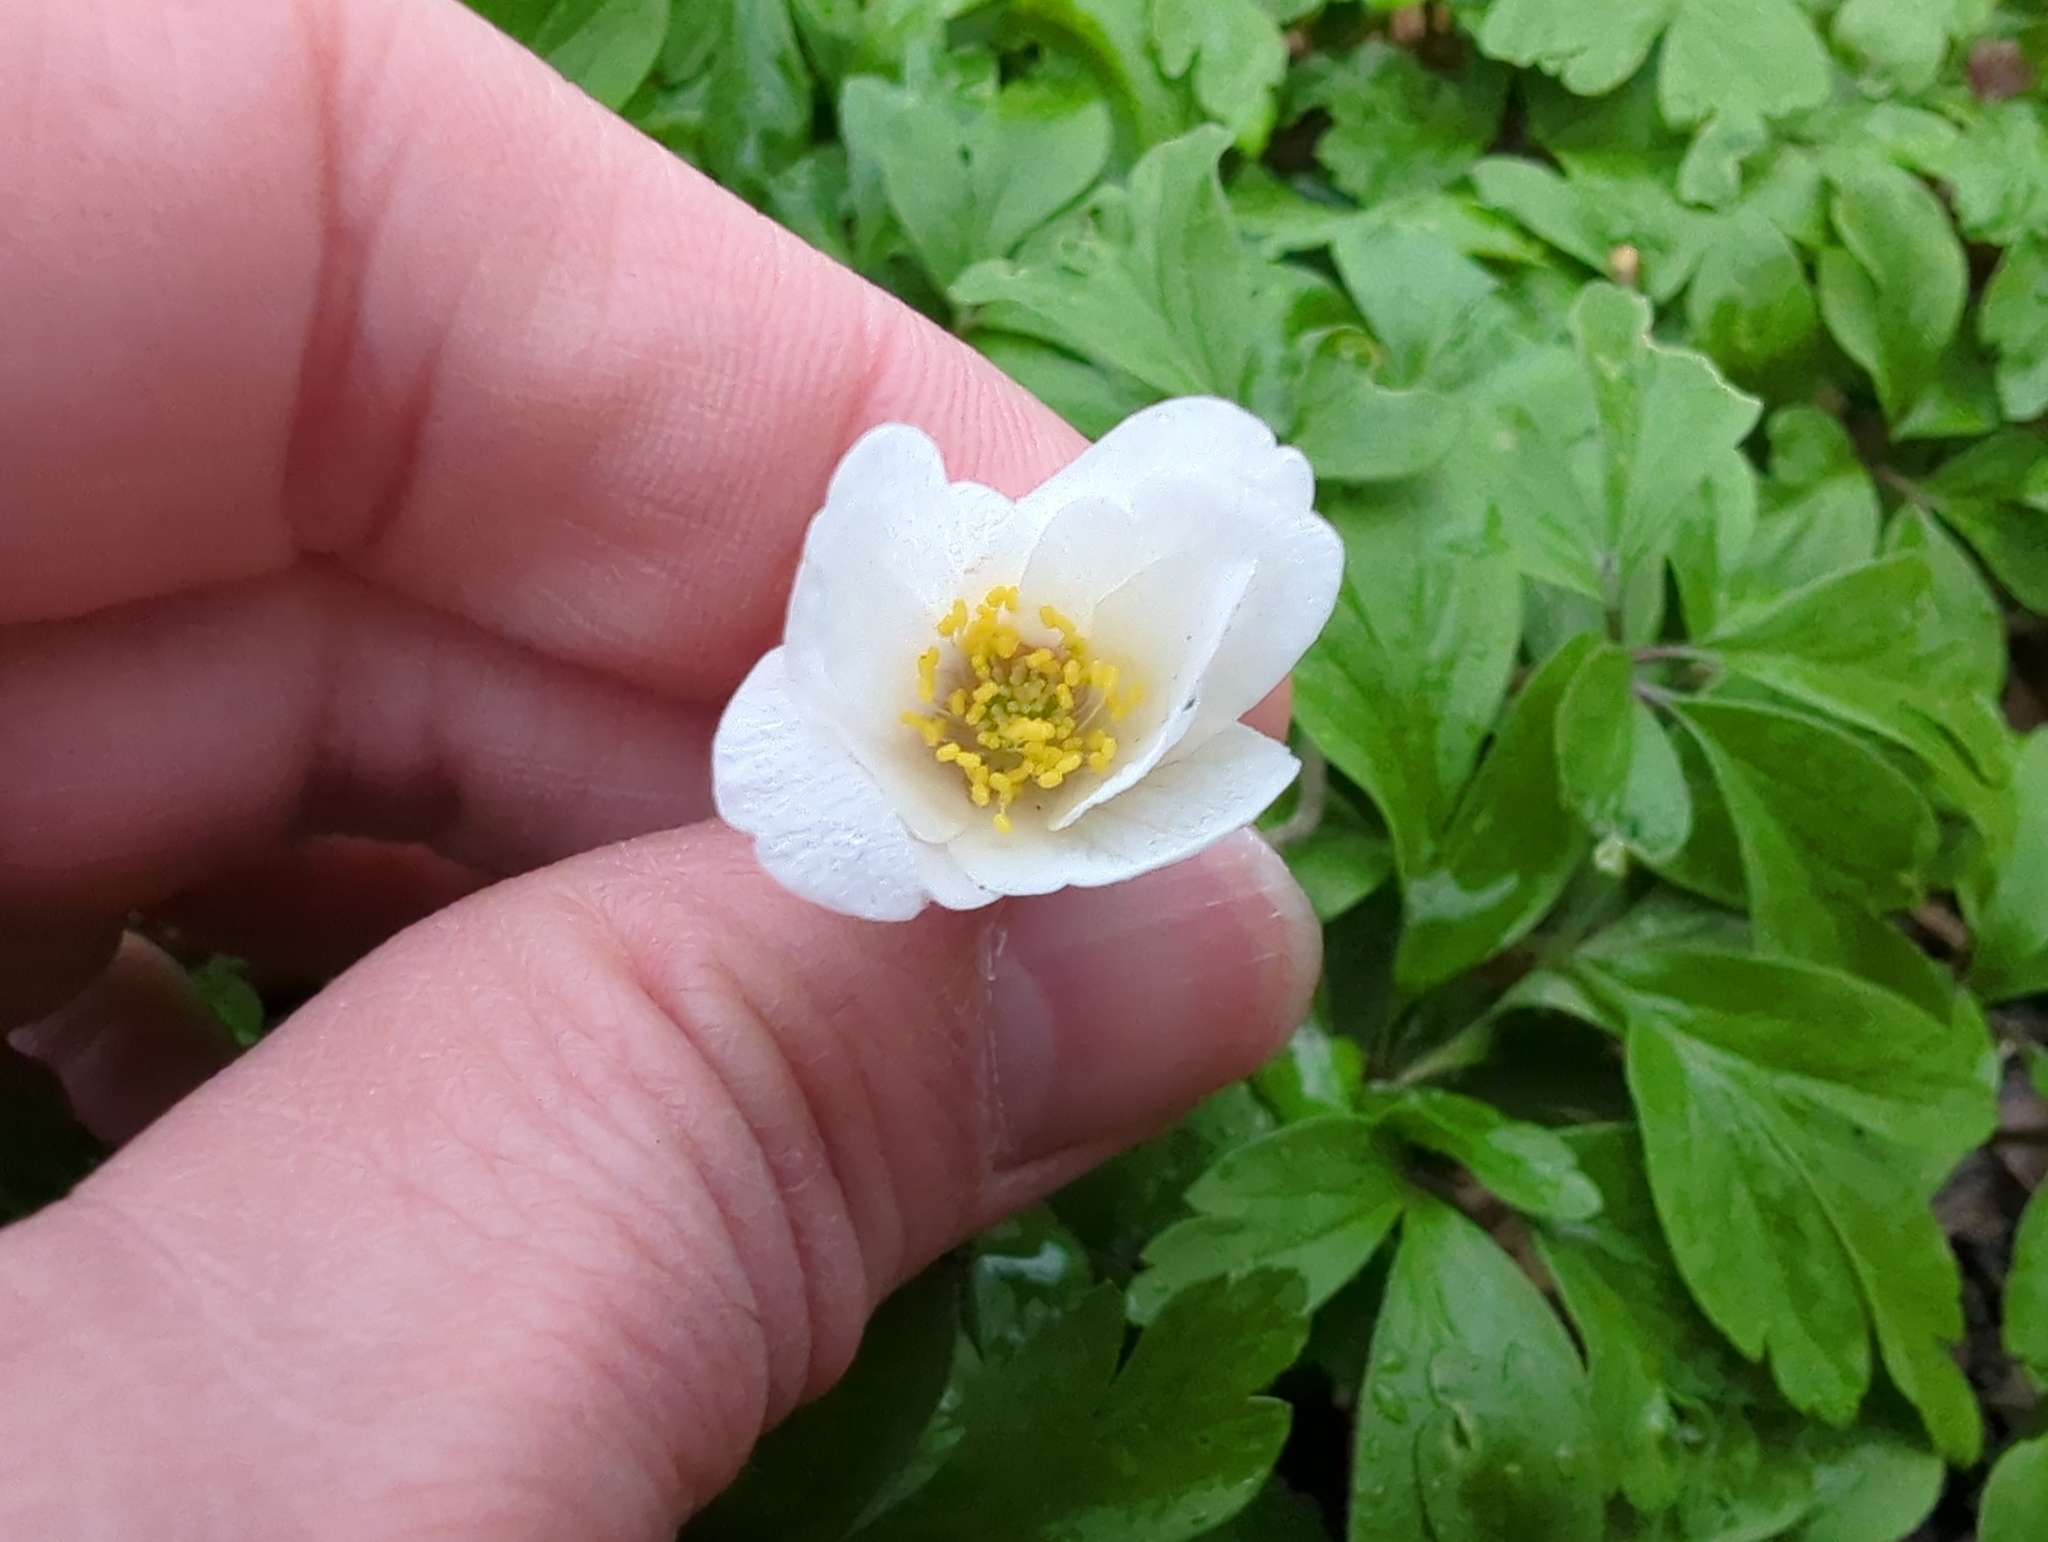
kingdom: Plantae
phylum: Tracheophyta
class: Magnoliopsida
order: Ranunculales
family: Ranunculaceae
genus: Anemone
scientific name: Anemone nemorosa
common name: Wood anemone
